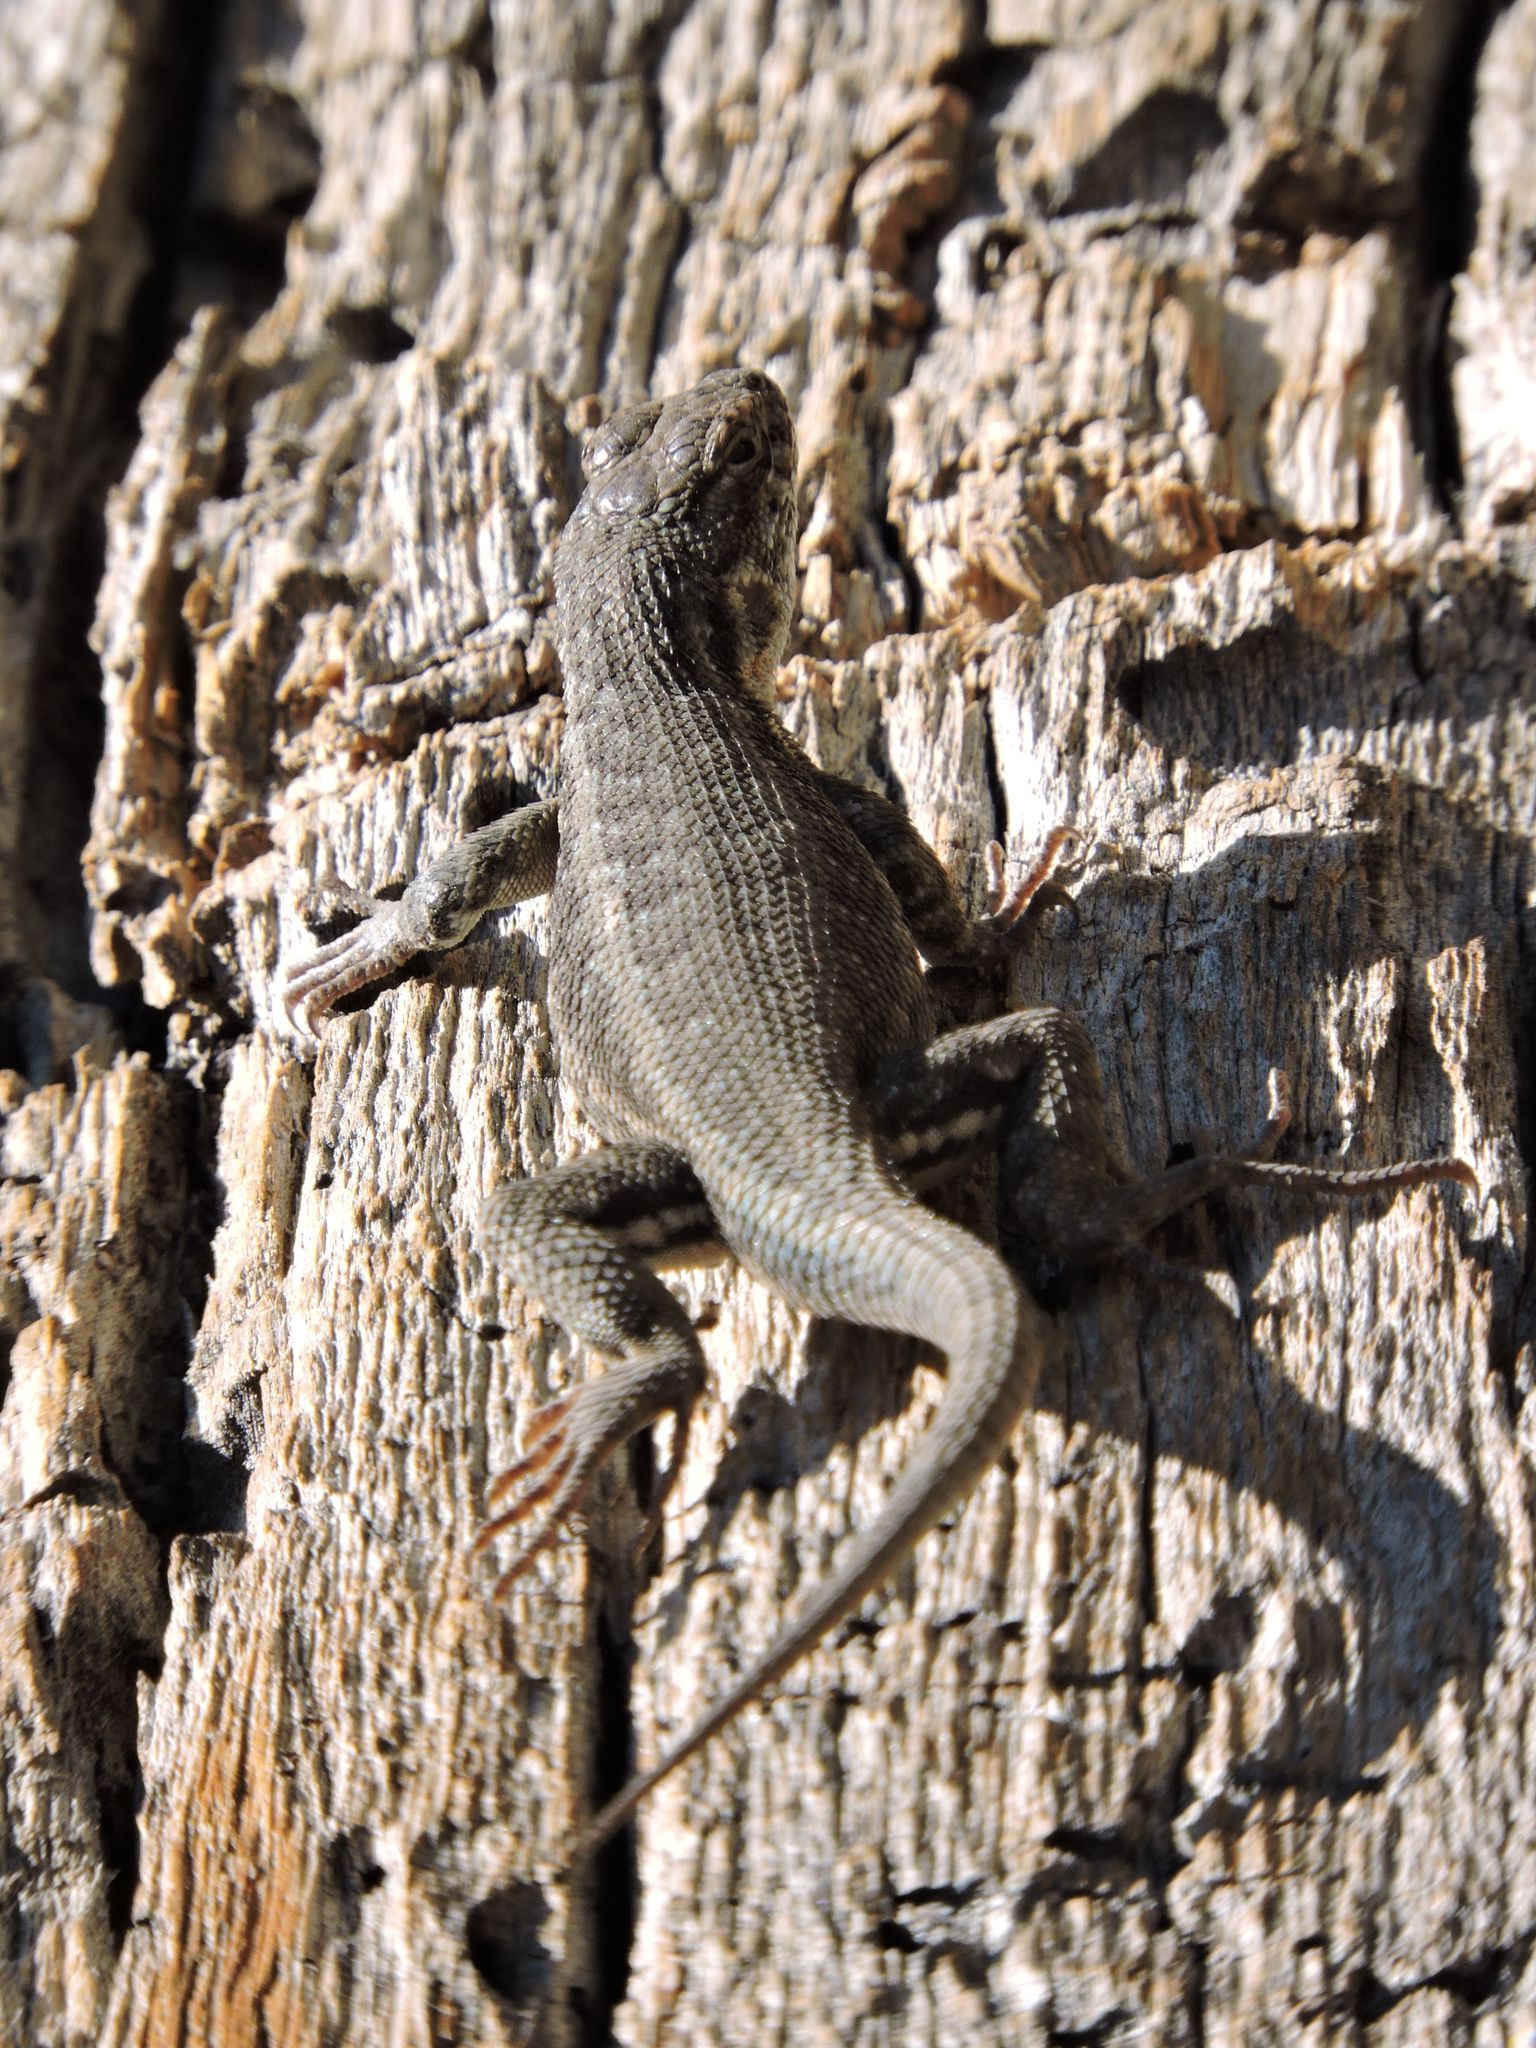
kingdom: Animalia
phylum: Chordata
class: Squamata
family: Phrynosomatidae
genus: Sceloporus
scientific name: Sceloporus graciosus
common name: Sagebrush lizard
